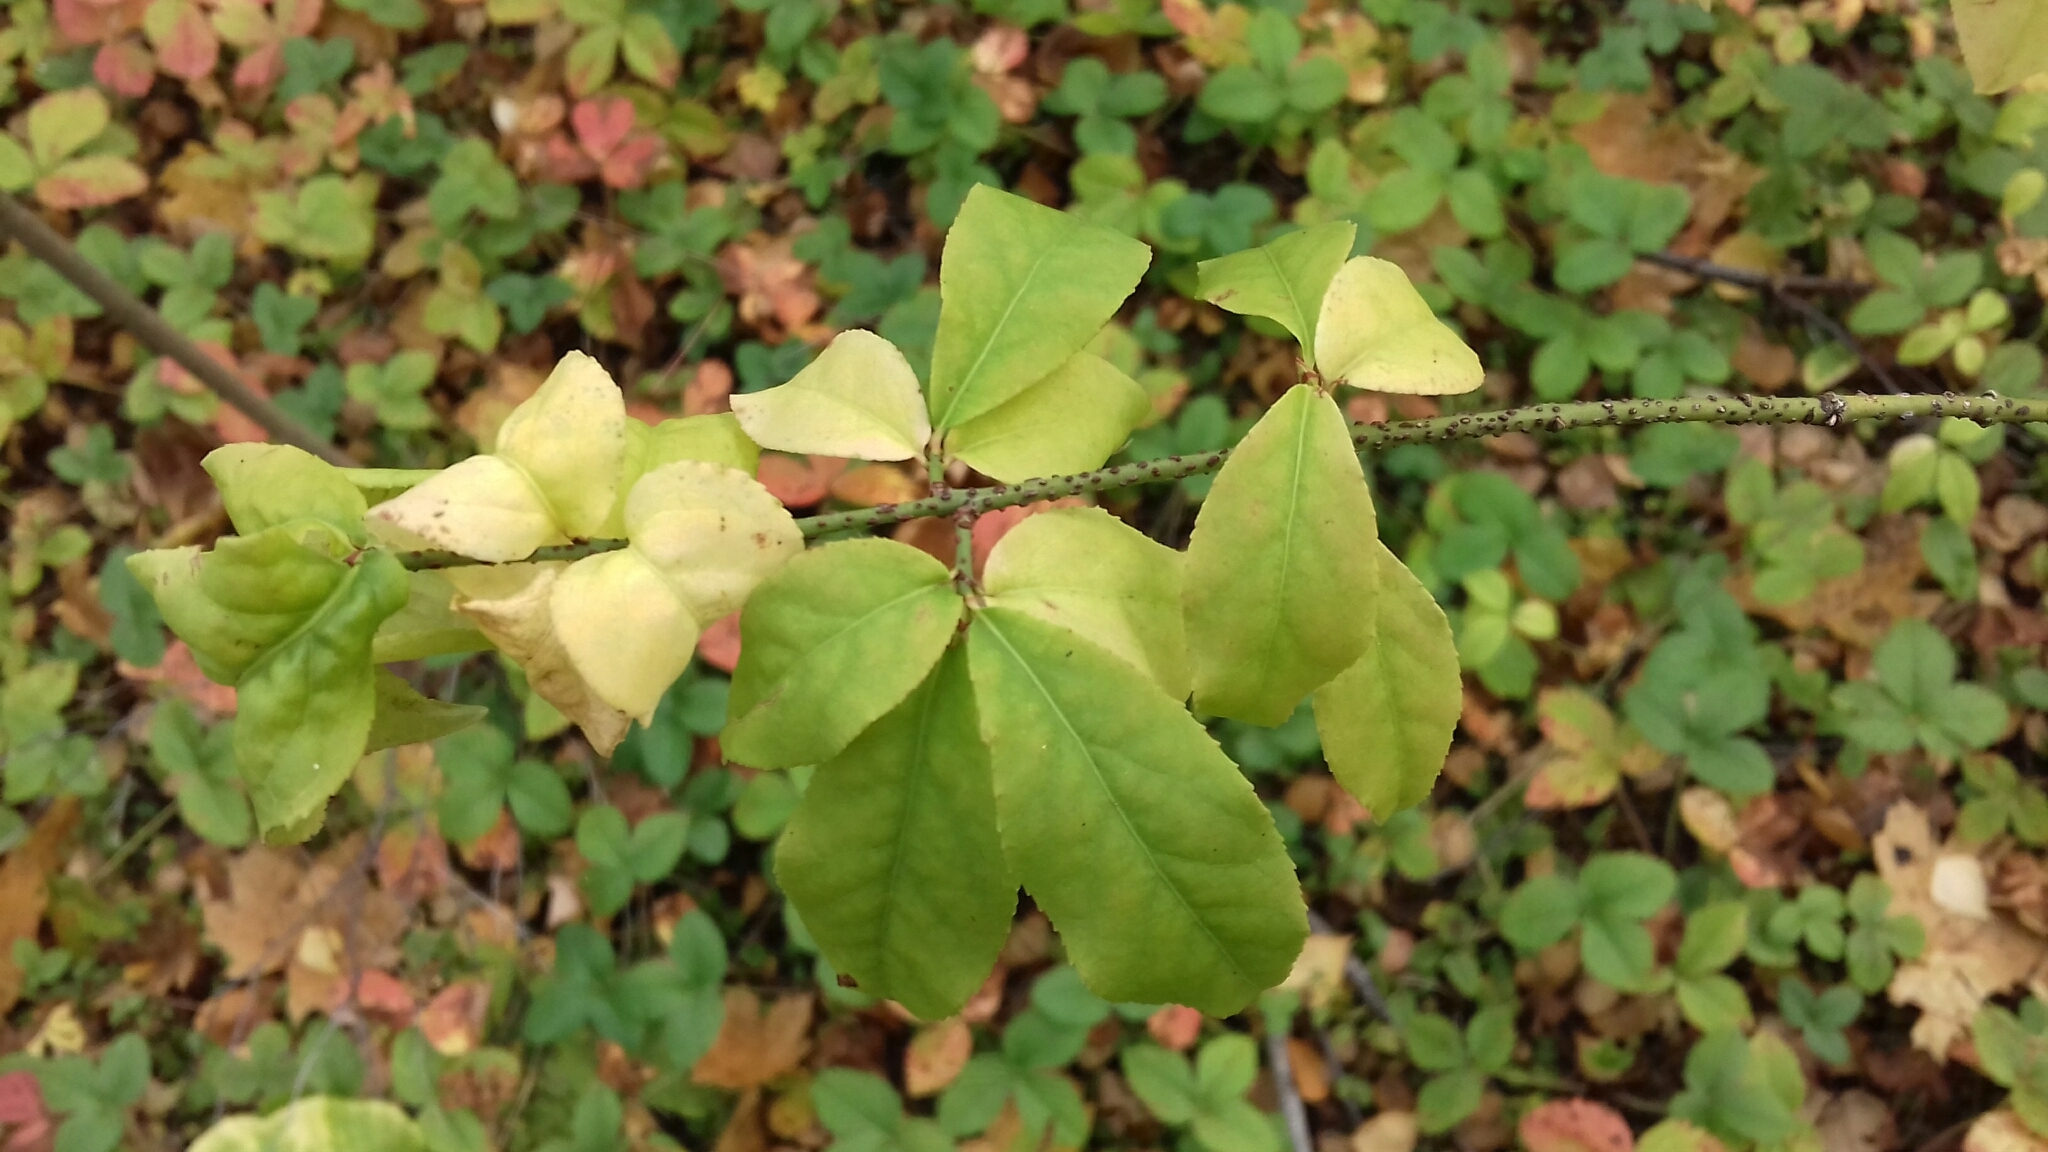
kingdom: Plantae
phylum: Tracheophyta
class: Magnoliopsida
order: Celastrales
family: Celastraceae
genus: Euonymus
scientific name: Euonymus verrucosus
